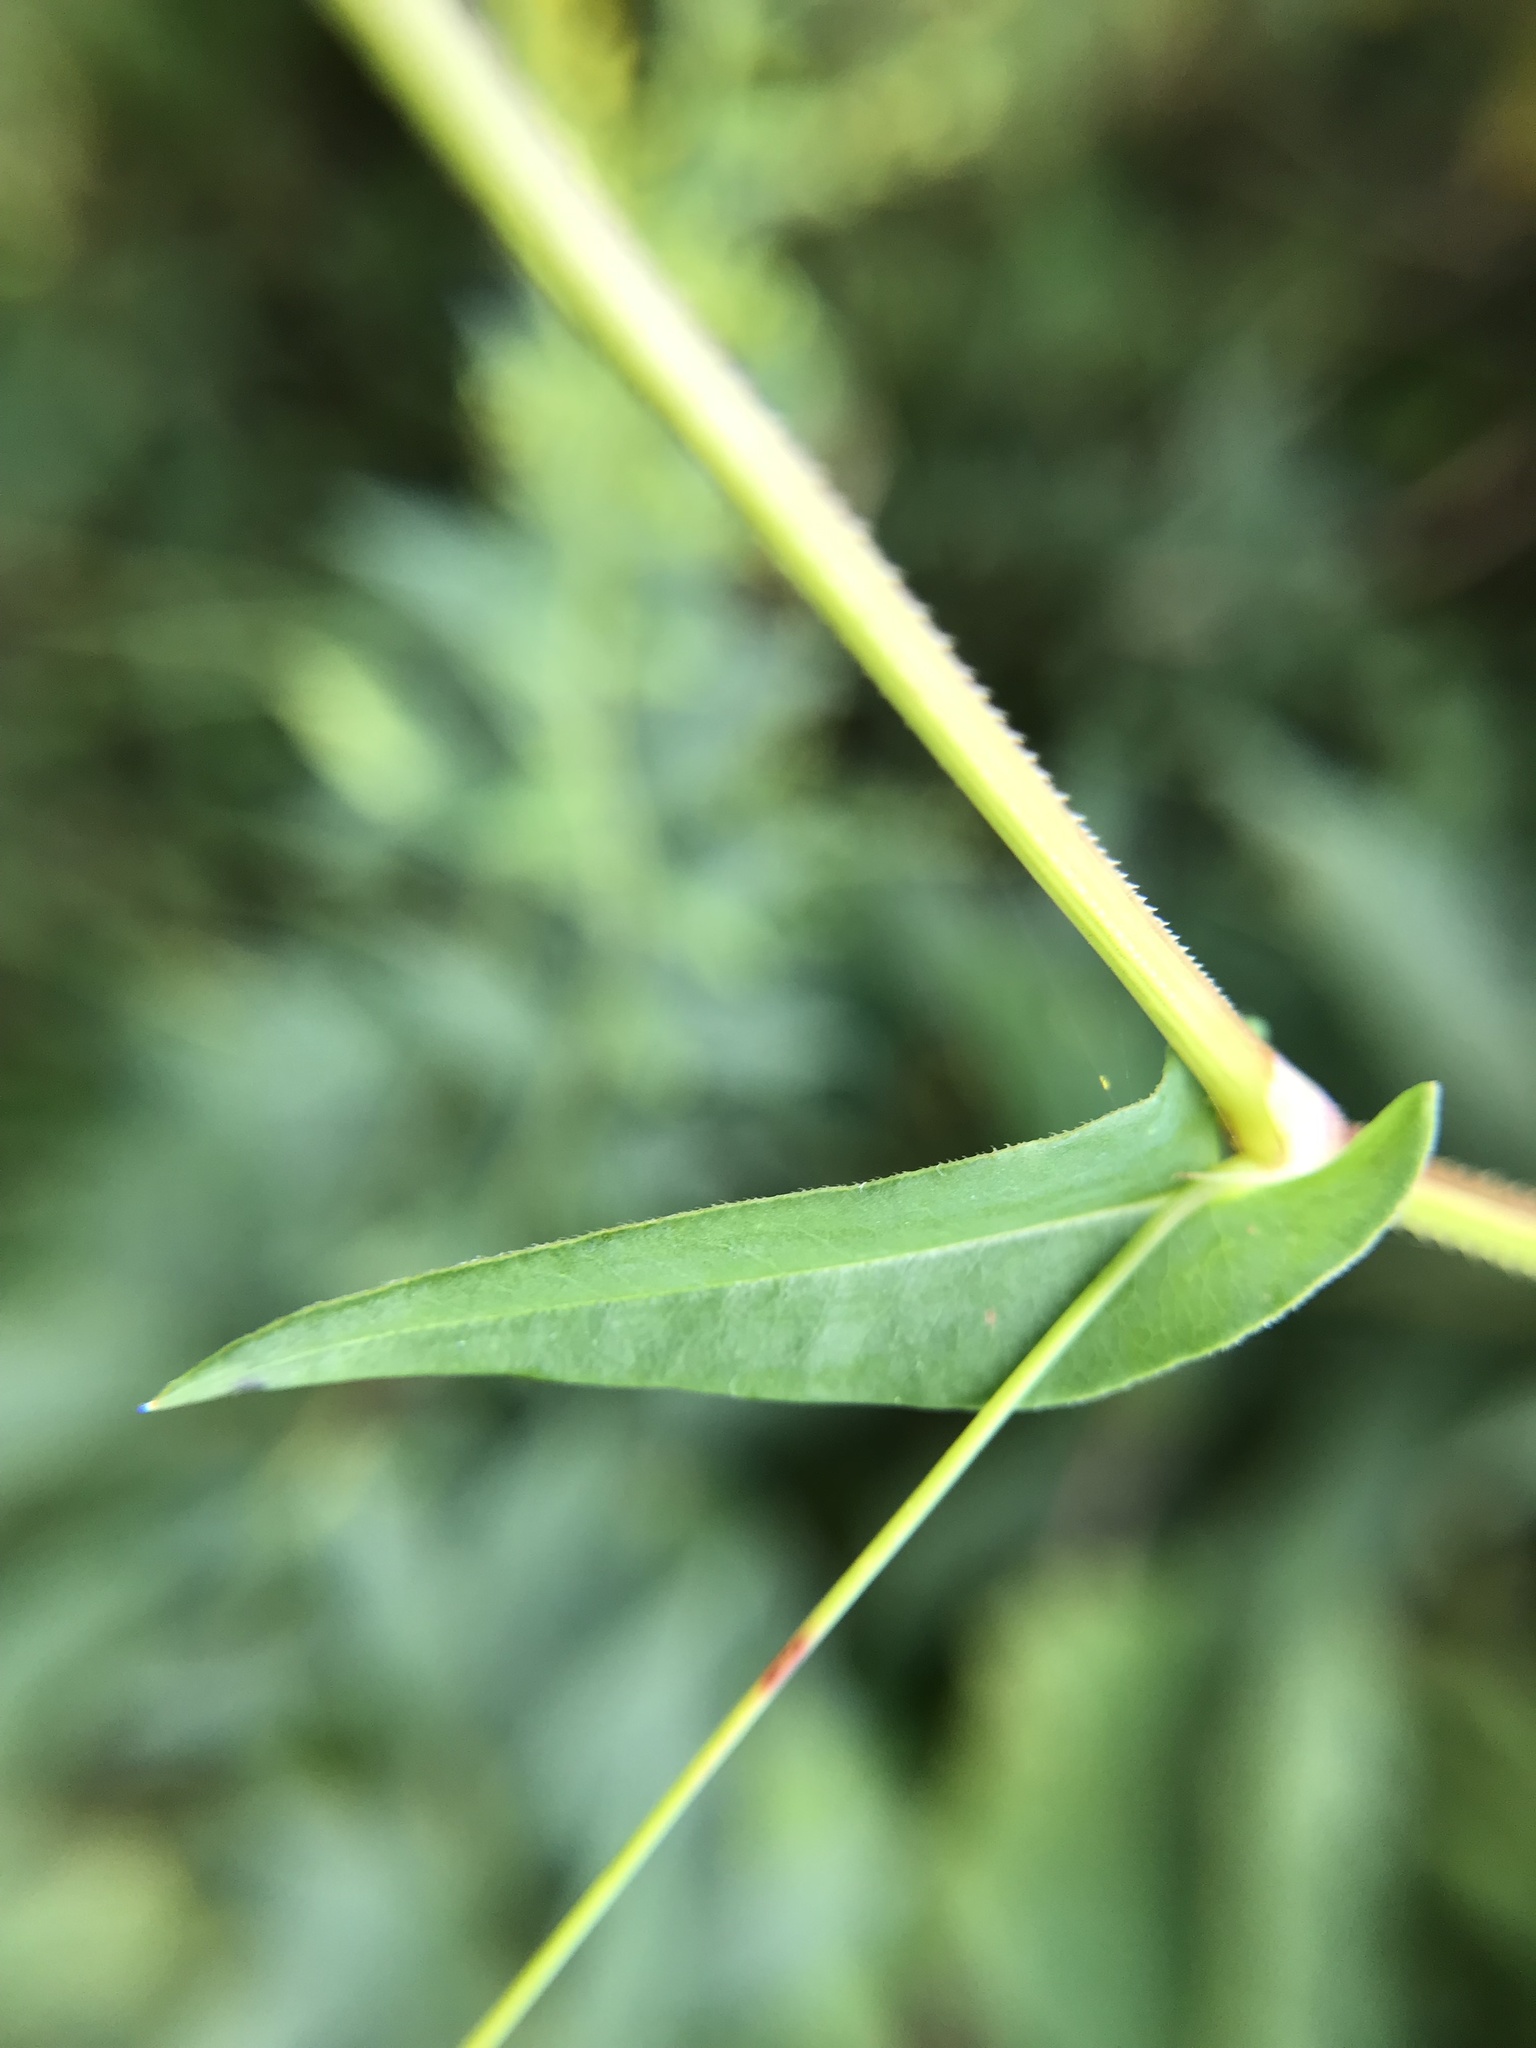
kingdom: Plantae
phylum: Tracheophyta
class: Magnoliopsida
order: Caryophyllales
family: Polygonaceae
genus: Persicaria
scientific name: Persicaria sagittata
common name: American tearthumb
